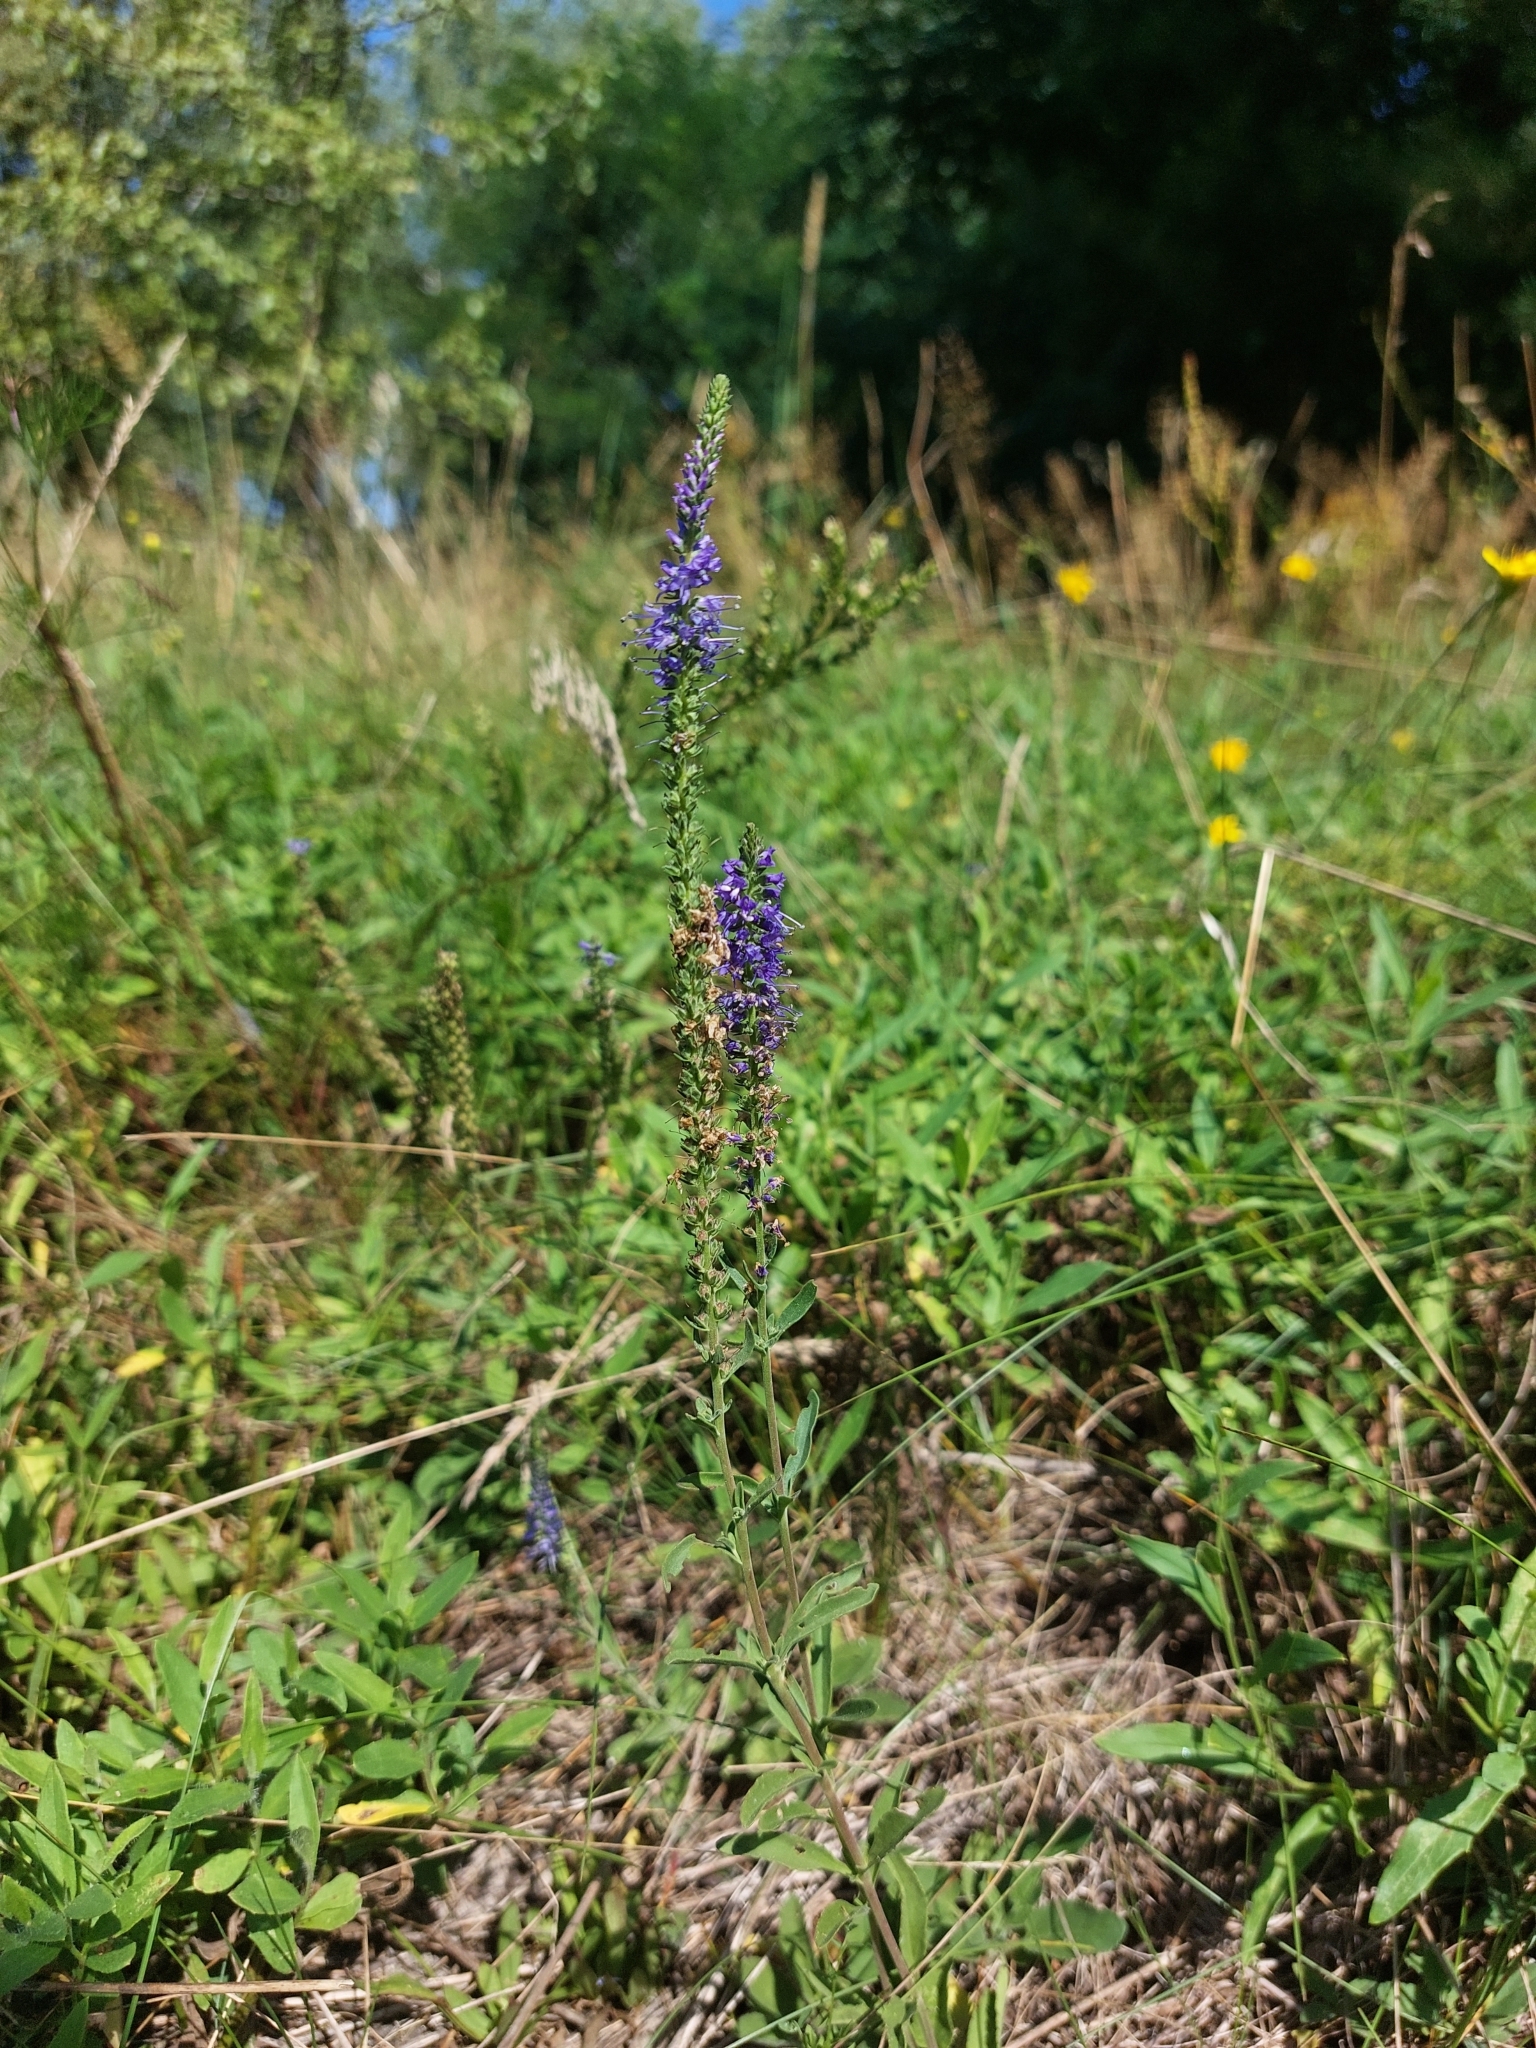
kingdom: Plantae
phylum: Tracheophyta
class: Magnoliopsida
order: Lamiales
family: Plantaginaceae
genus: Veronica
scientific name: Veronica spicata
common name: Spiked speedwell
